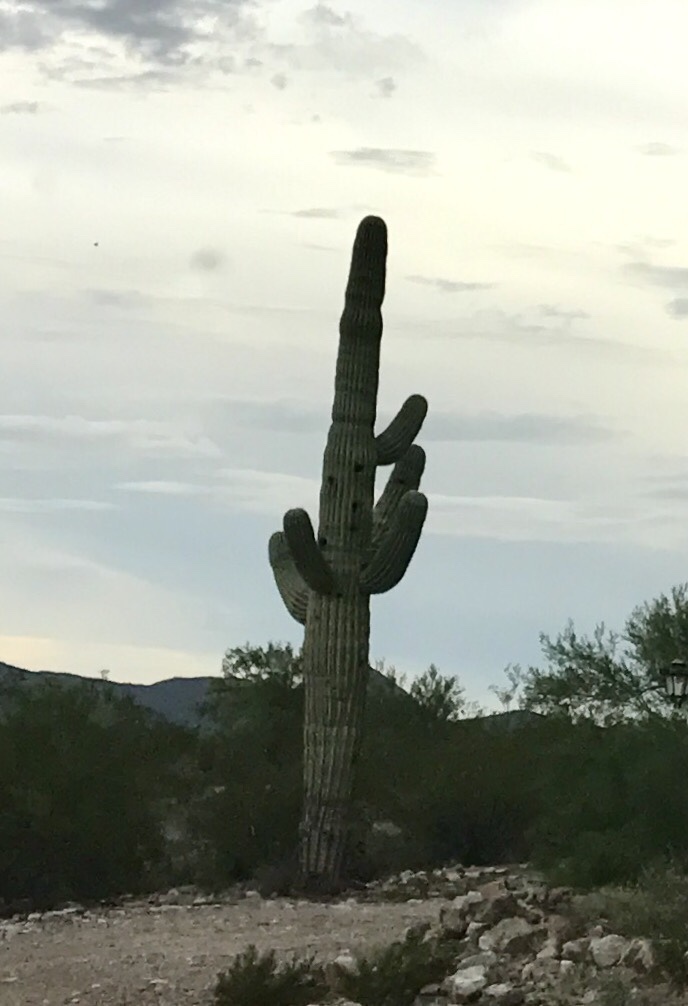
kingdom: Plantae
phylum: Tracheophyta
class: Magnoliopsida
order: Caryophyllales
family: Cactaceae
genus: Carnegiea
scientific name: Carnegiea gigantea
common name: Saguaro
